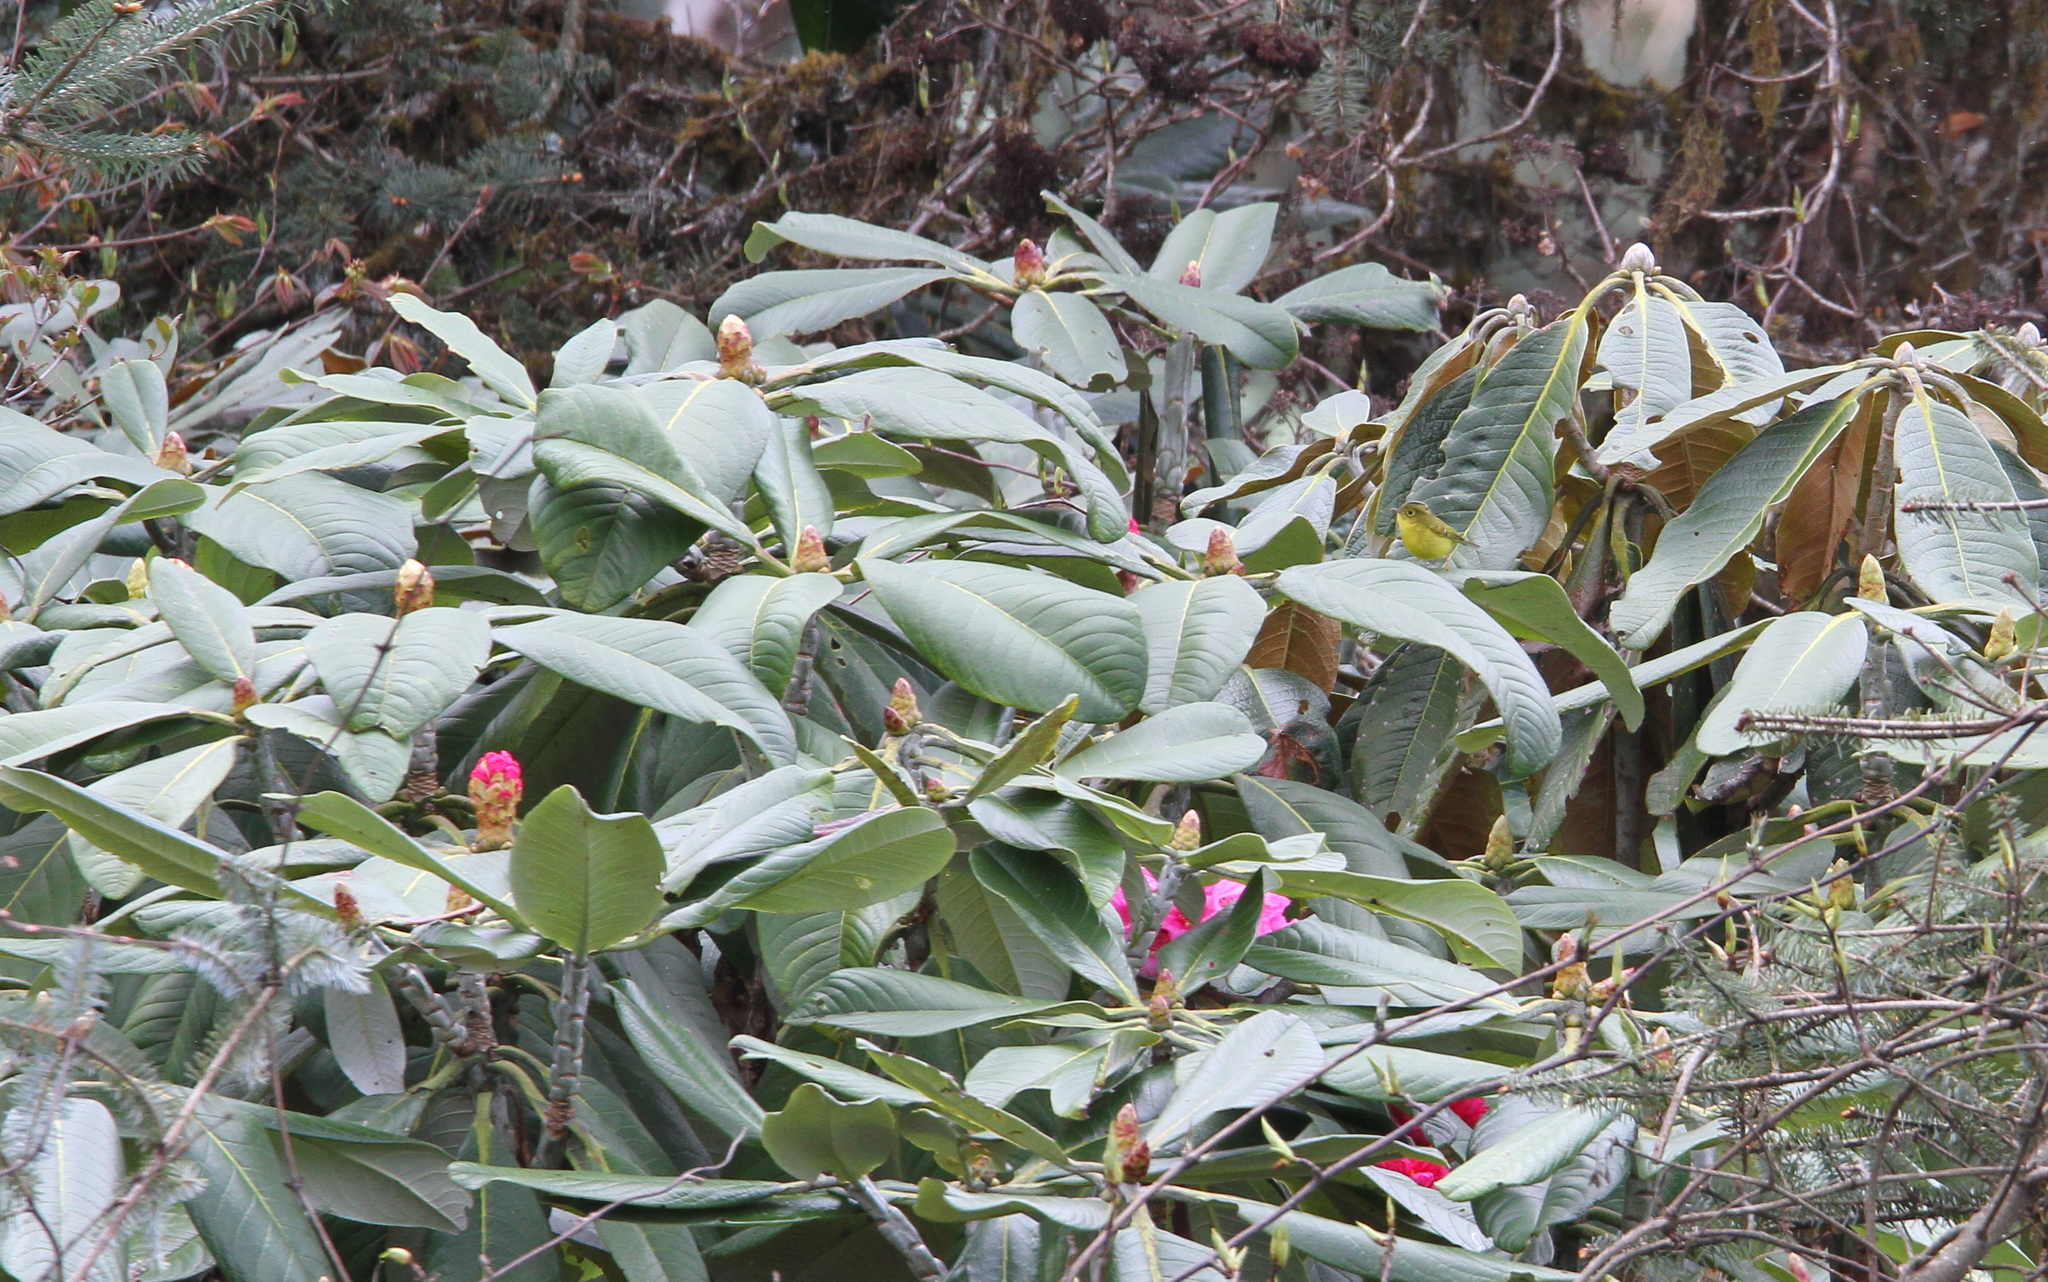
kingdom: Animalia
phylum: Chordata
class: Aves
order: Passeriformes
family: Phylloscopidae
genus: Seicercus
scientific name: Seicercus whistleri
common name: Whistler's warbler
